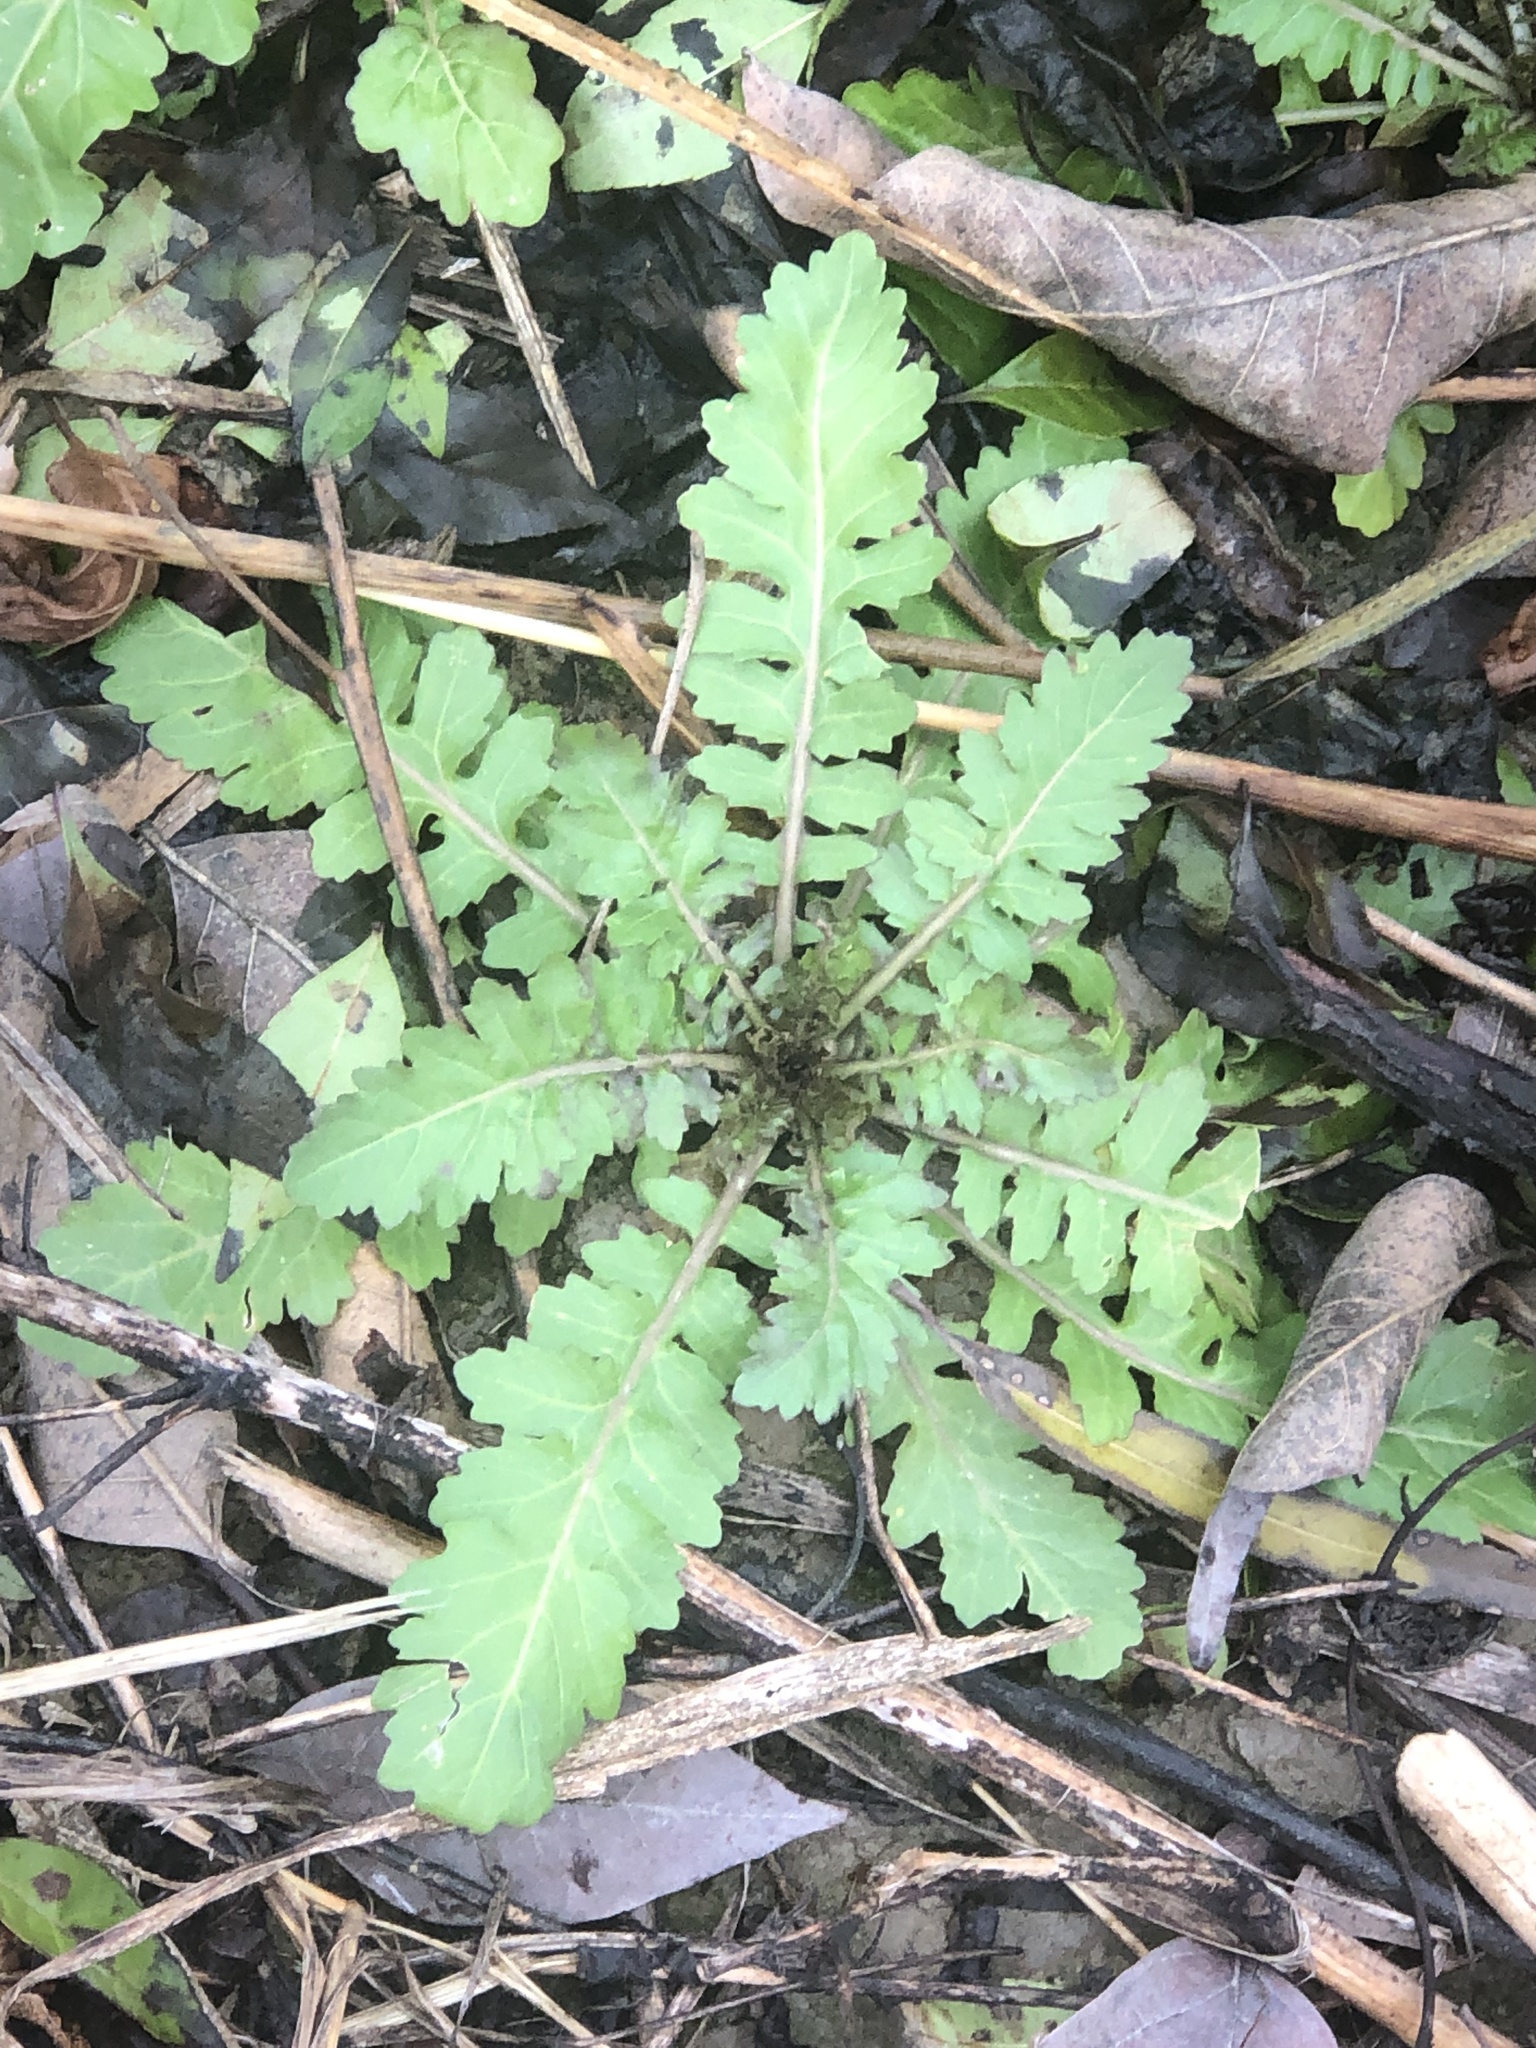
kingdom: Plantae
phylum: Tracheophyta
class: Magnoliopsida
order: Brassicales
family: Brassicaceae
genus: Rorippa
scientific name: Rorippa sessiliflora
